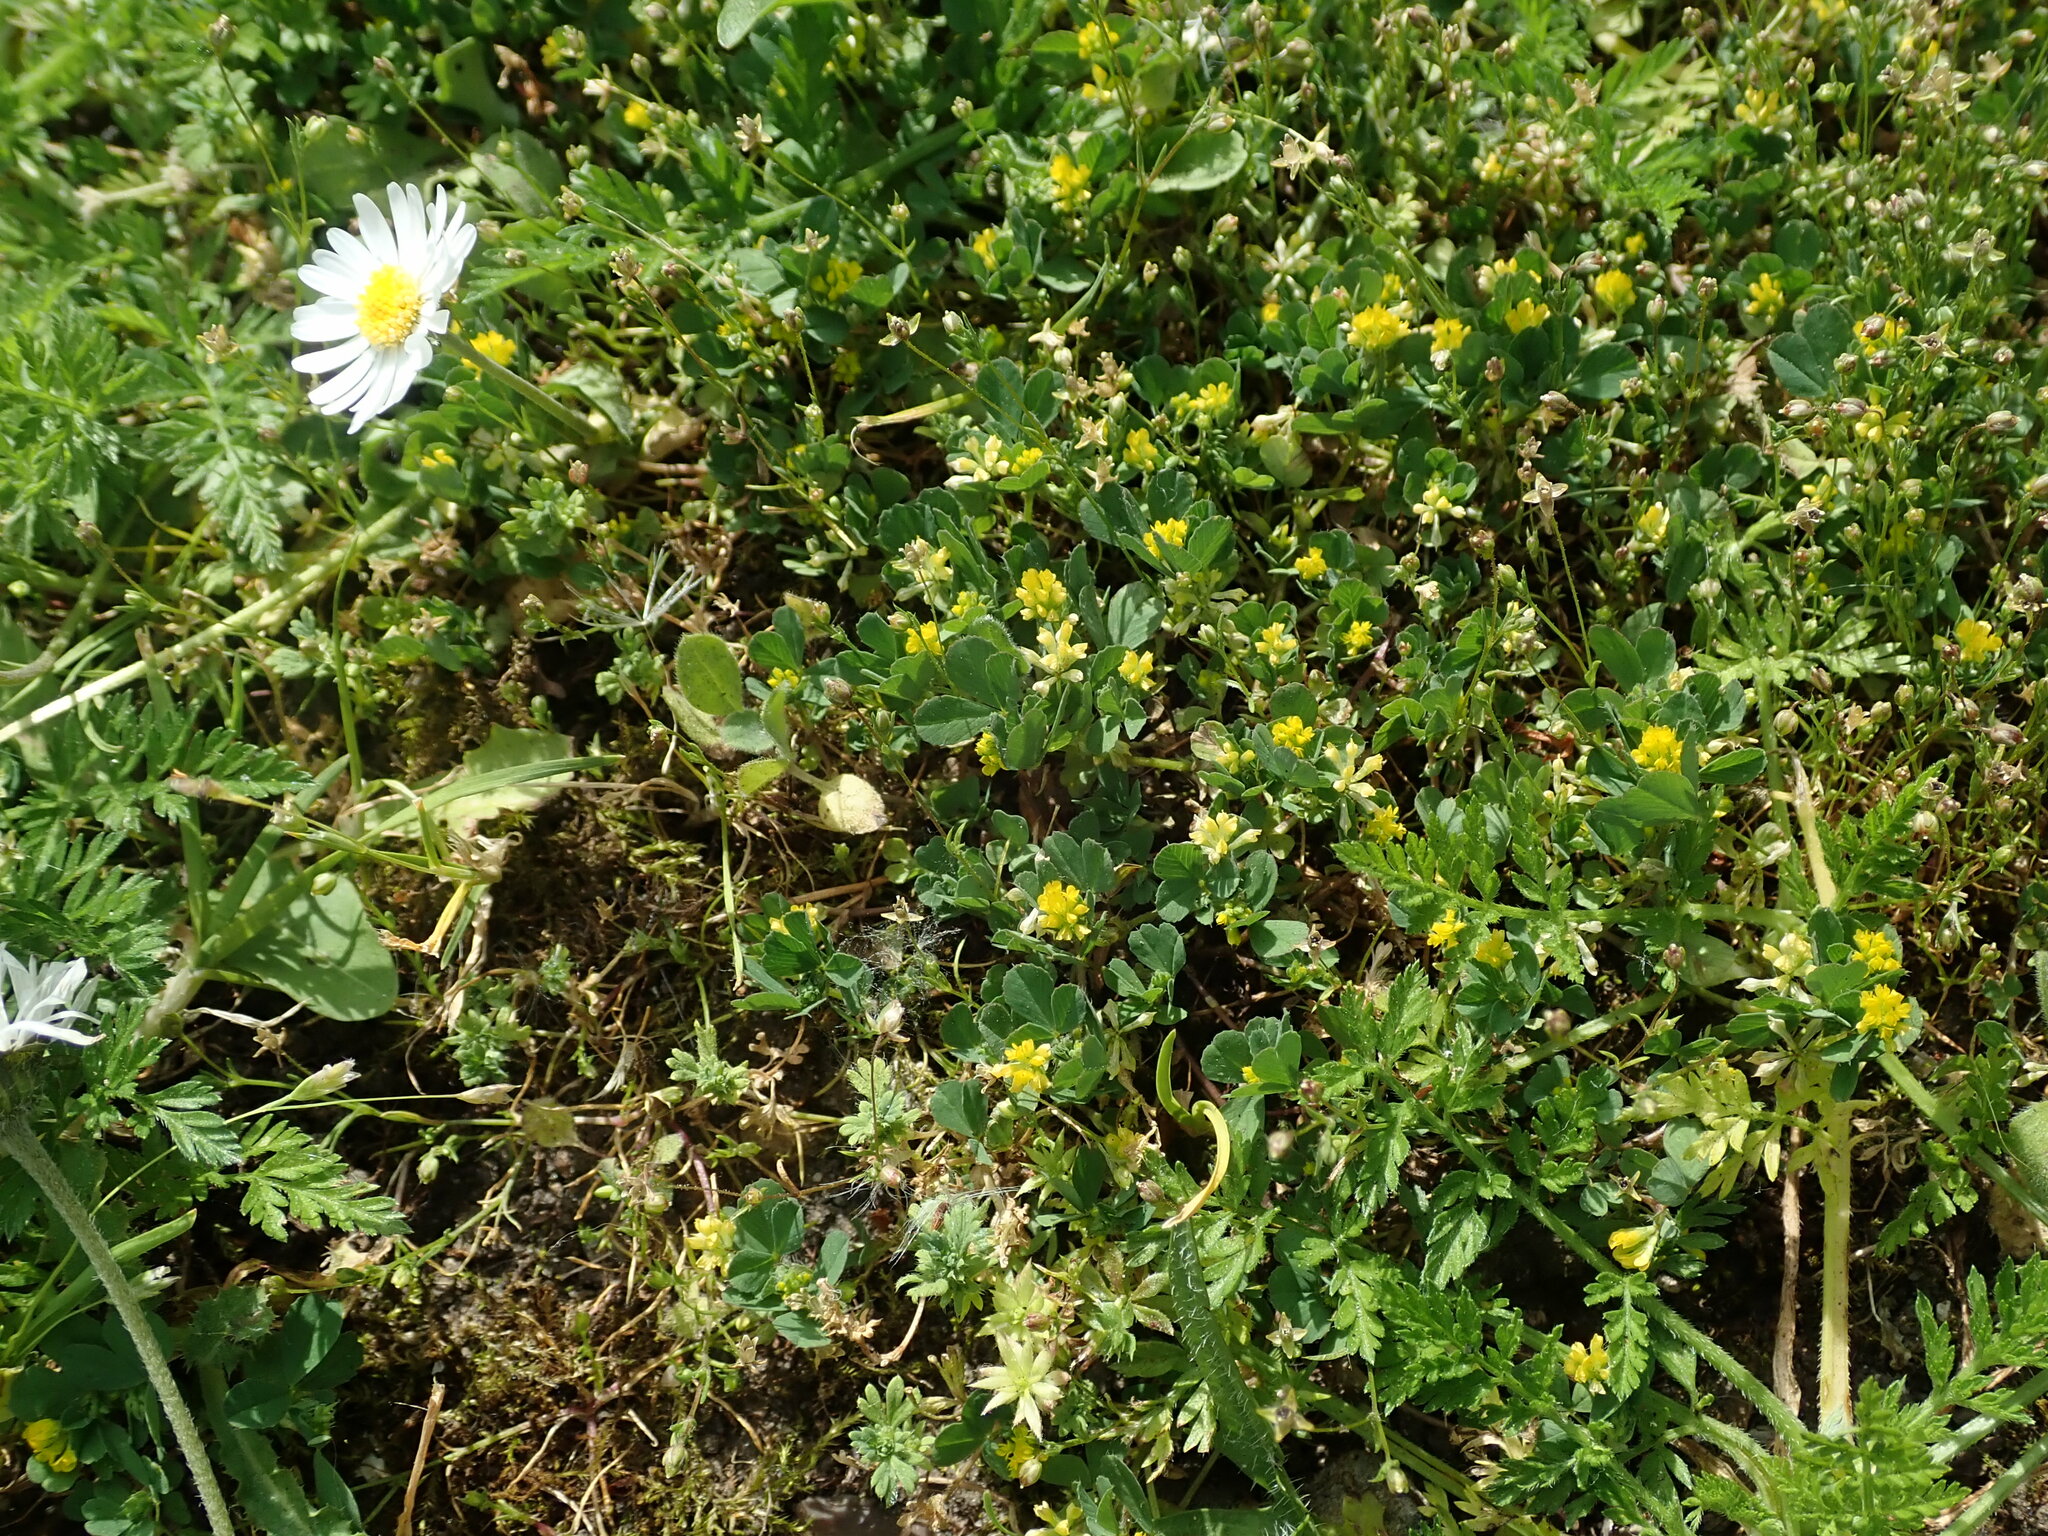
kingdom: Plantae
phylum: Tracheophyta
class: Magnoliopsida
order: Fabales
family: Fabaceae
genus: Trifolium
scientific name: Trifolium dubium
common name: Suckling clover
